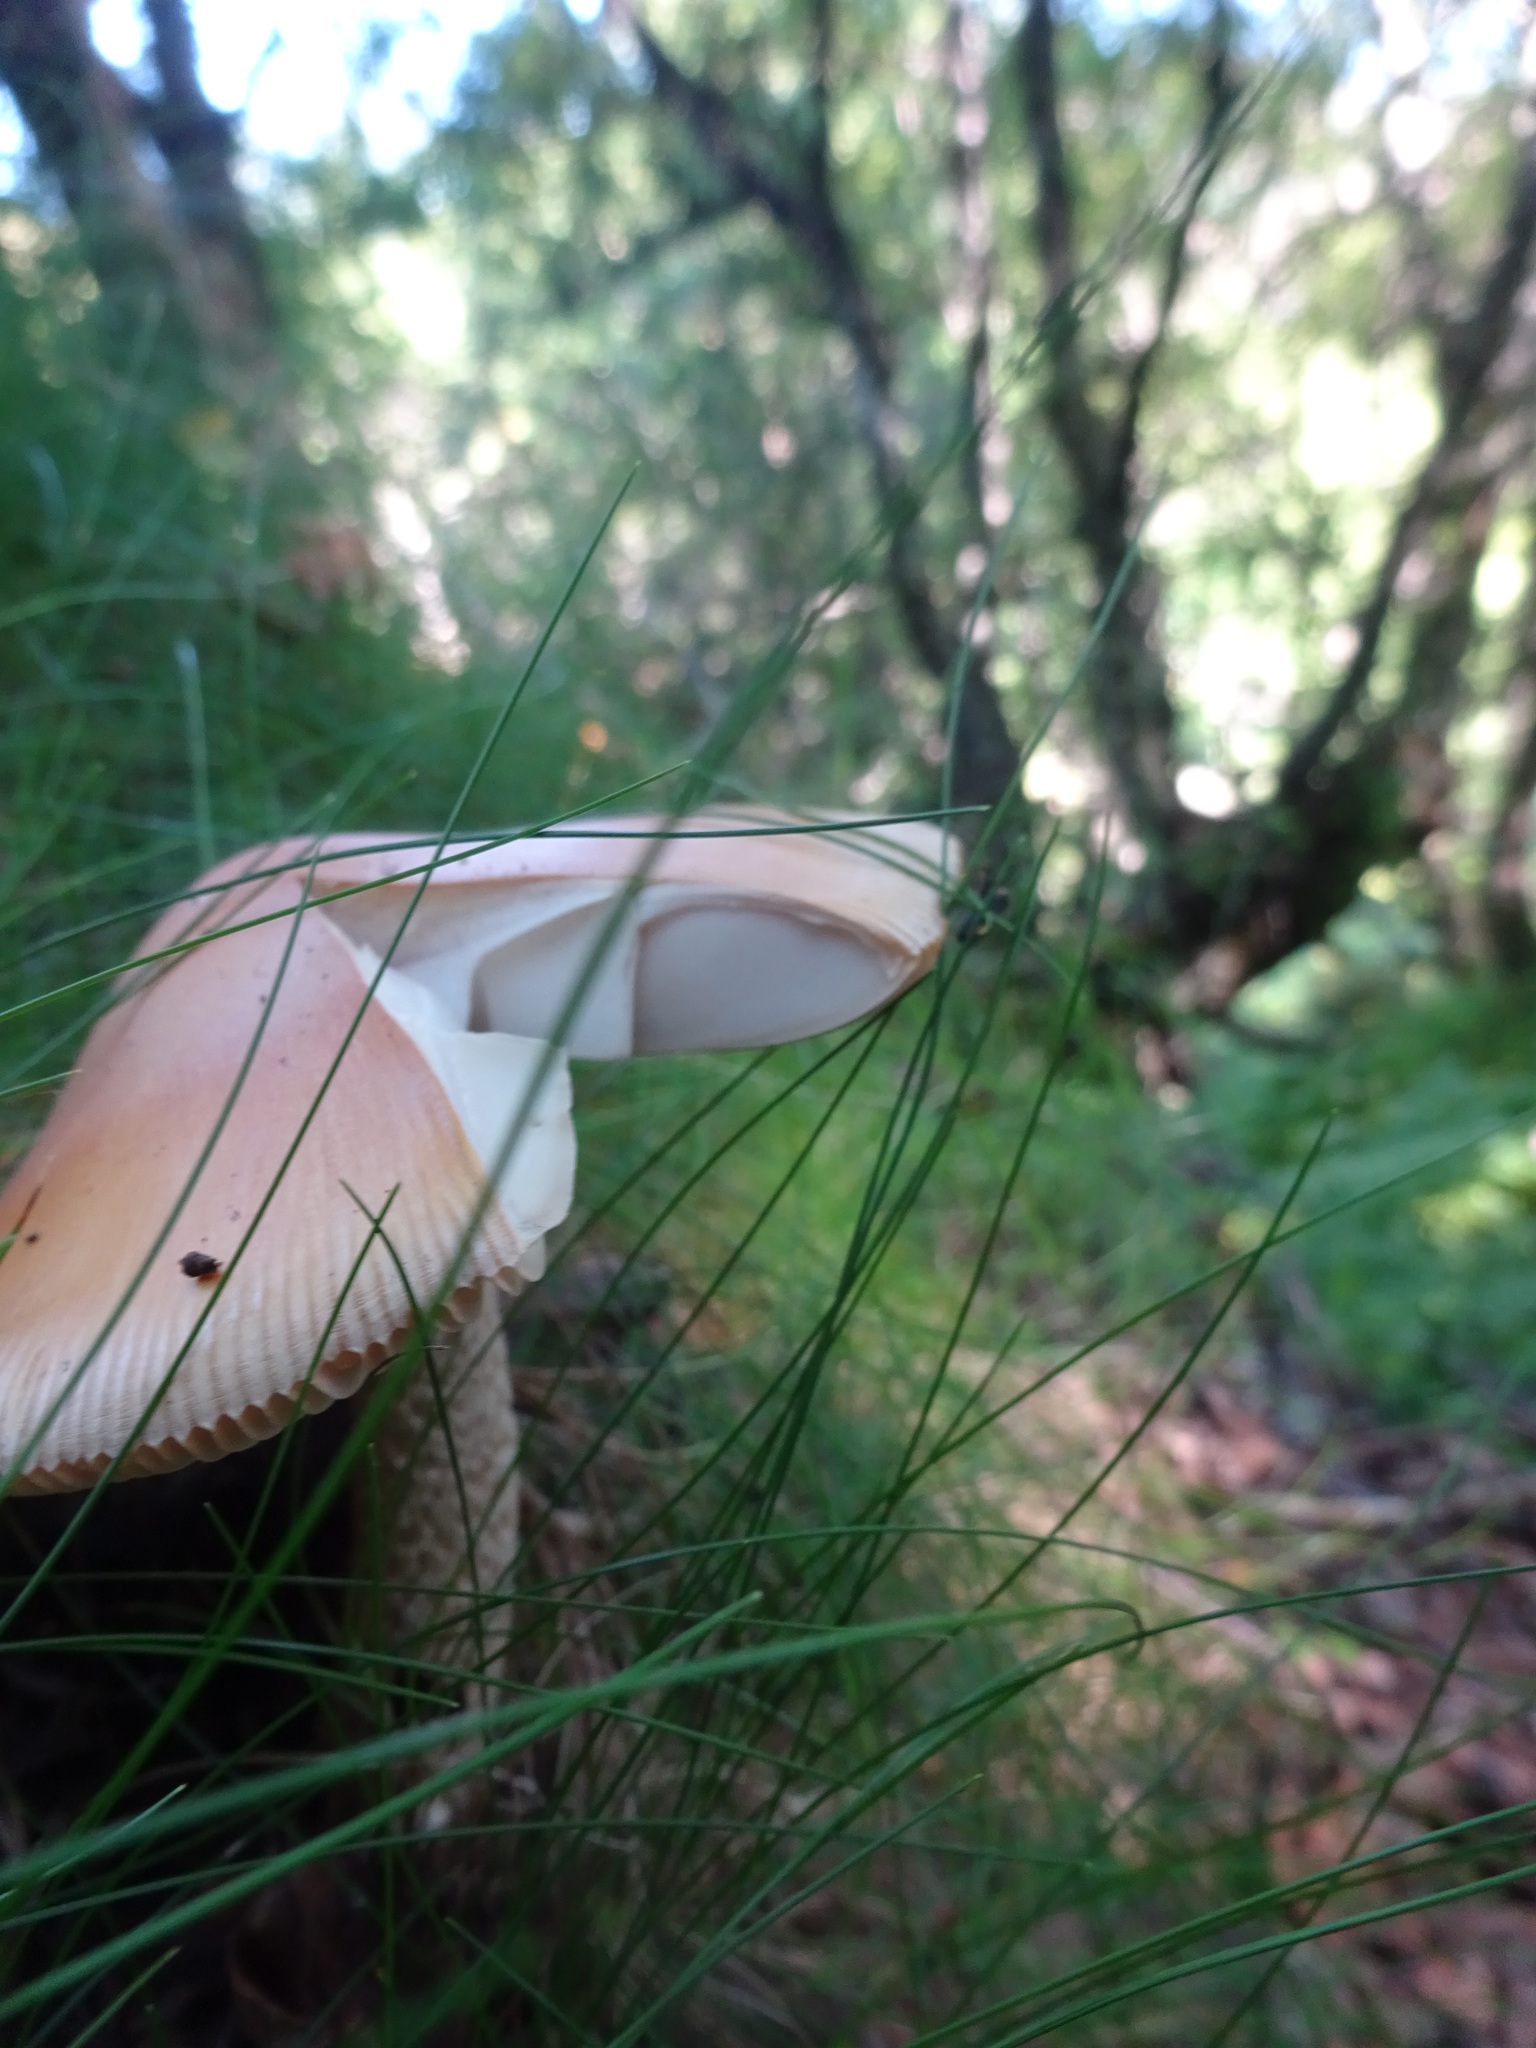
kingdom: Fungi
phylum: Basidiomycota
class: Agaricomycetes
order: Agaricales
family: Amanitaceae
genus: Amanita
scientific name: Amanita crocea
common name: Orange grisette
